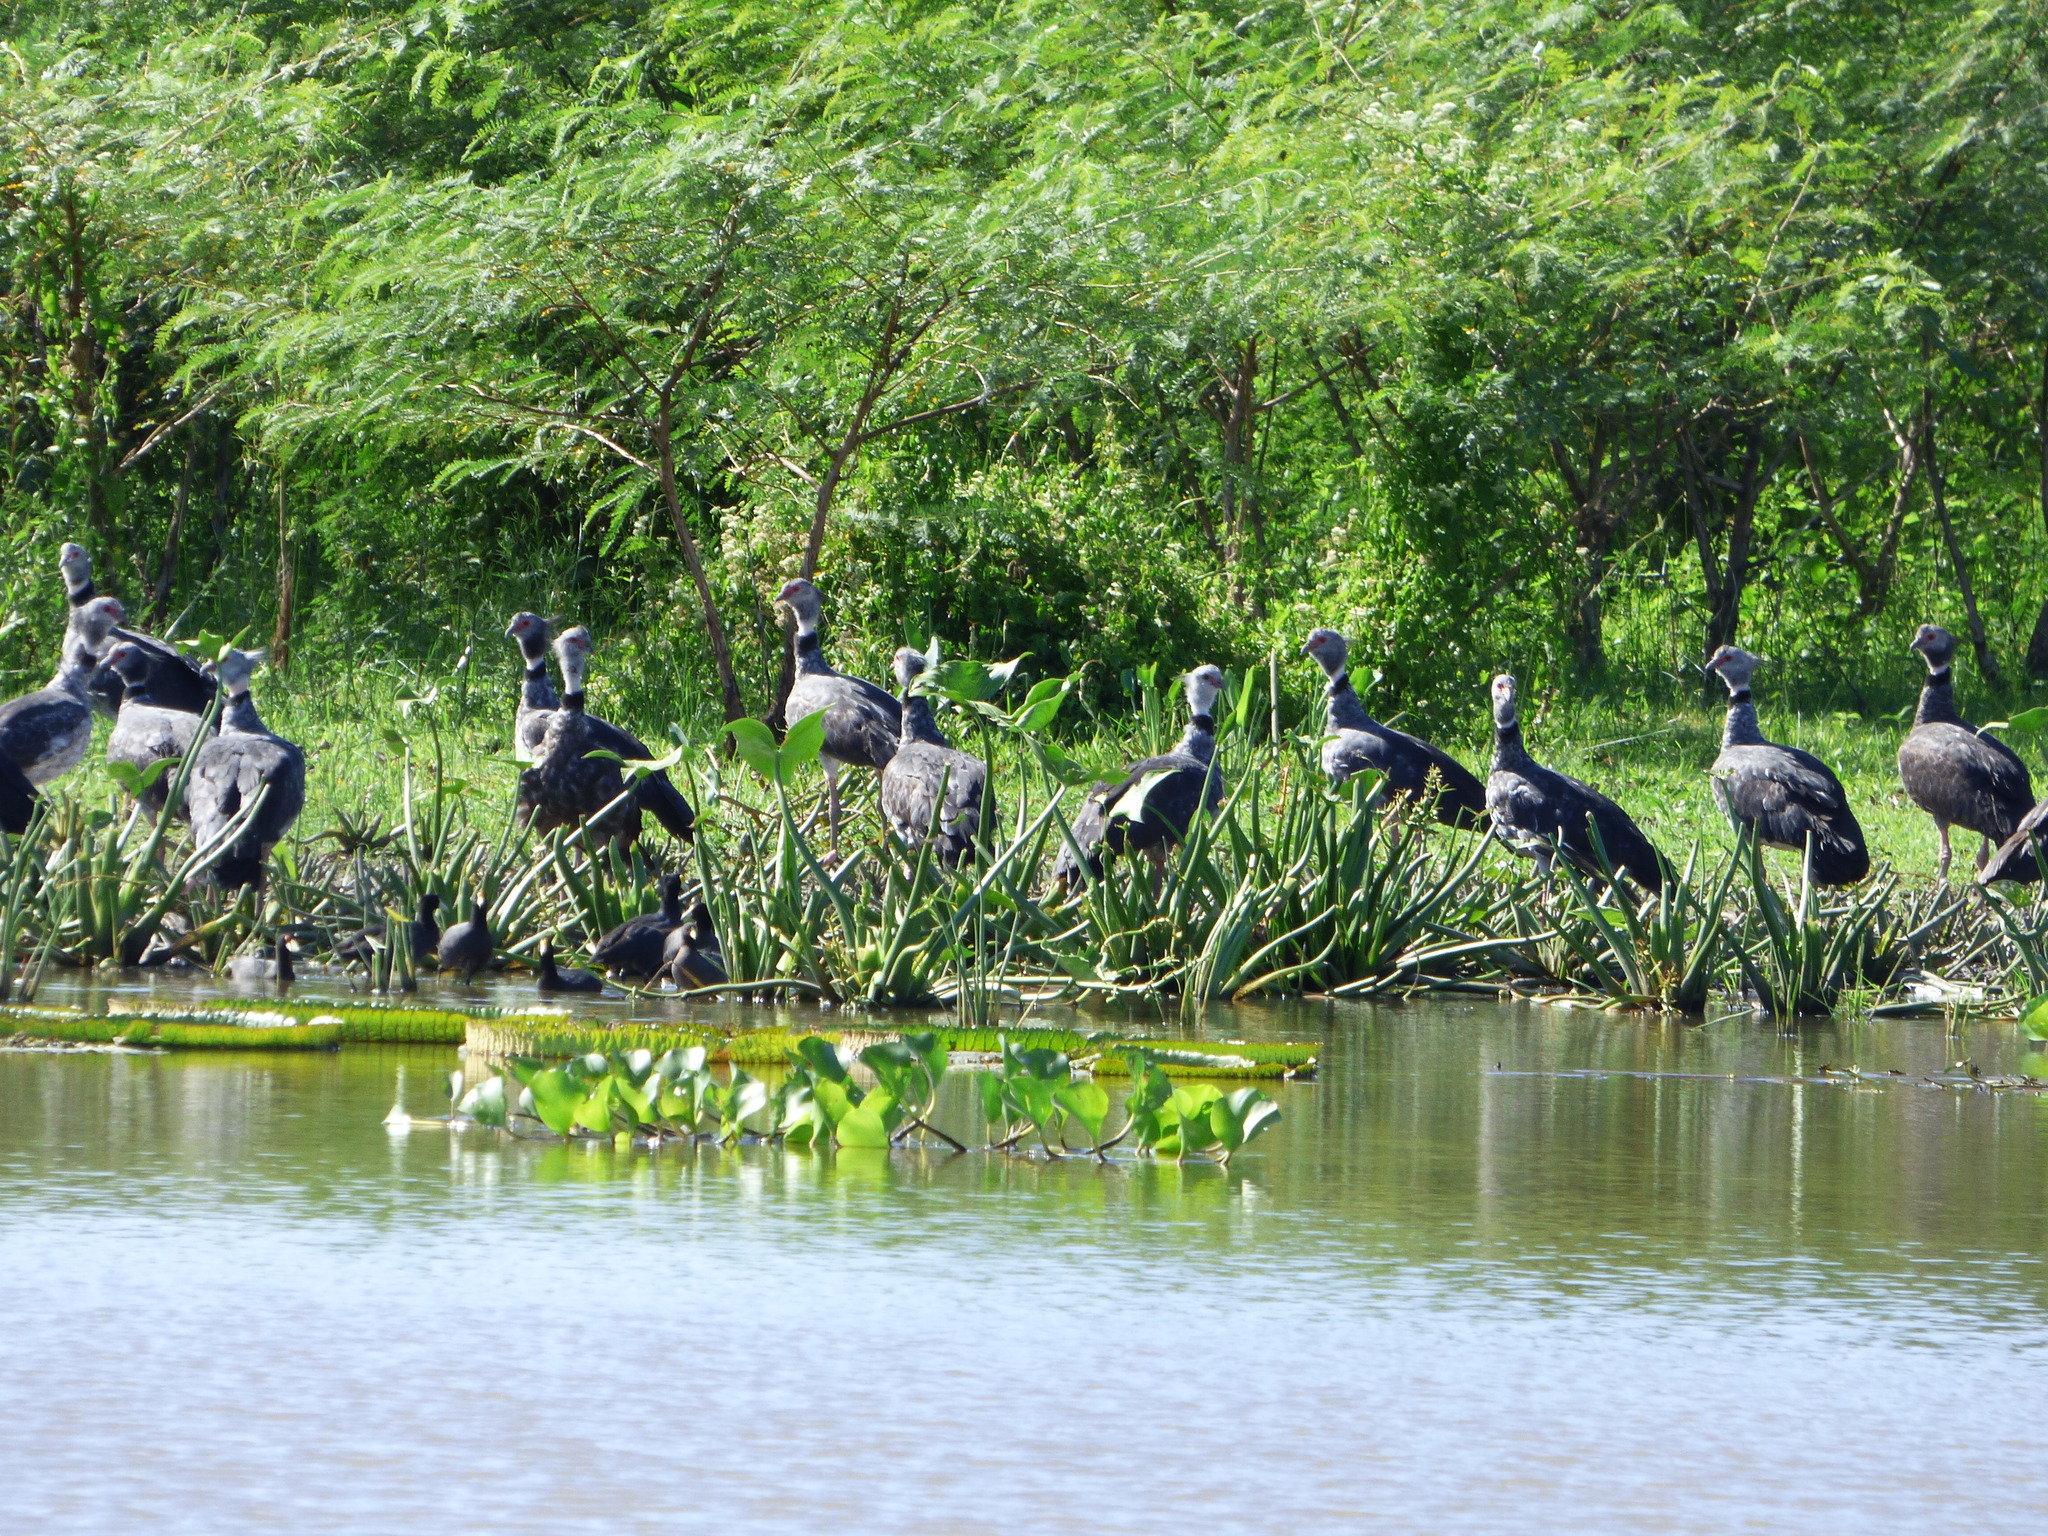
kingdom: Animalia
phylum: Chordata
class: Aves
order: Anseriformes
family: Anhimidae
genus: Chauna
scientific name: Chauna torquata
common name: Southern screamer
